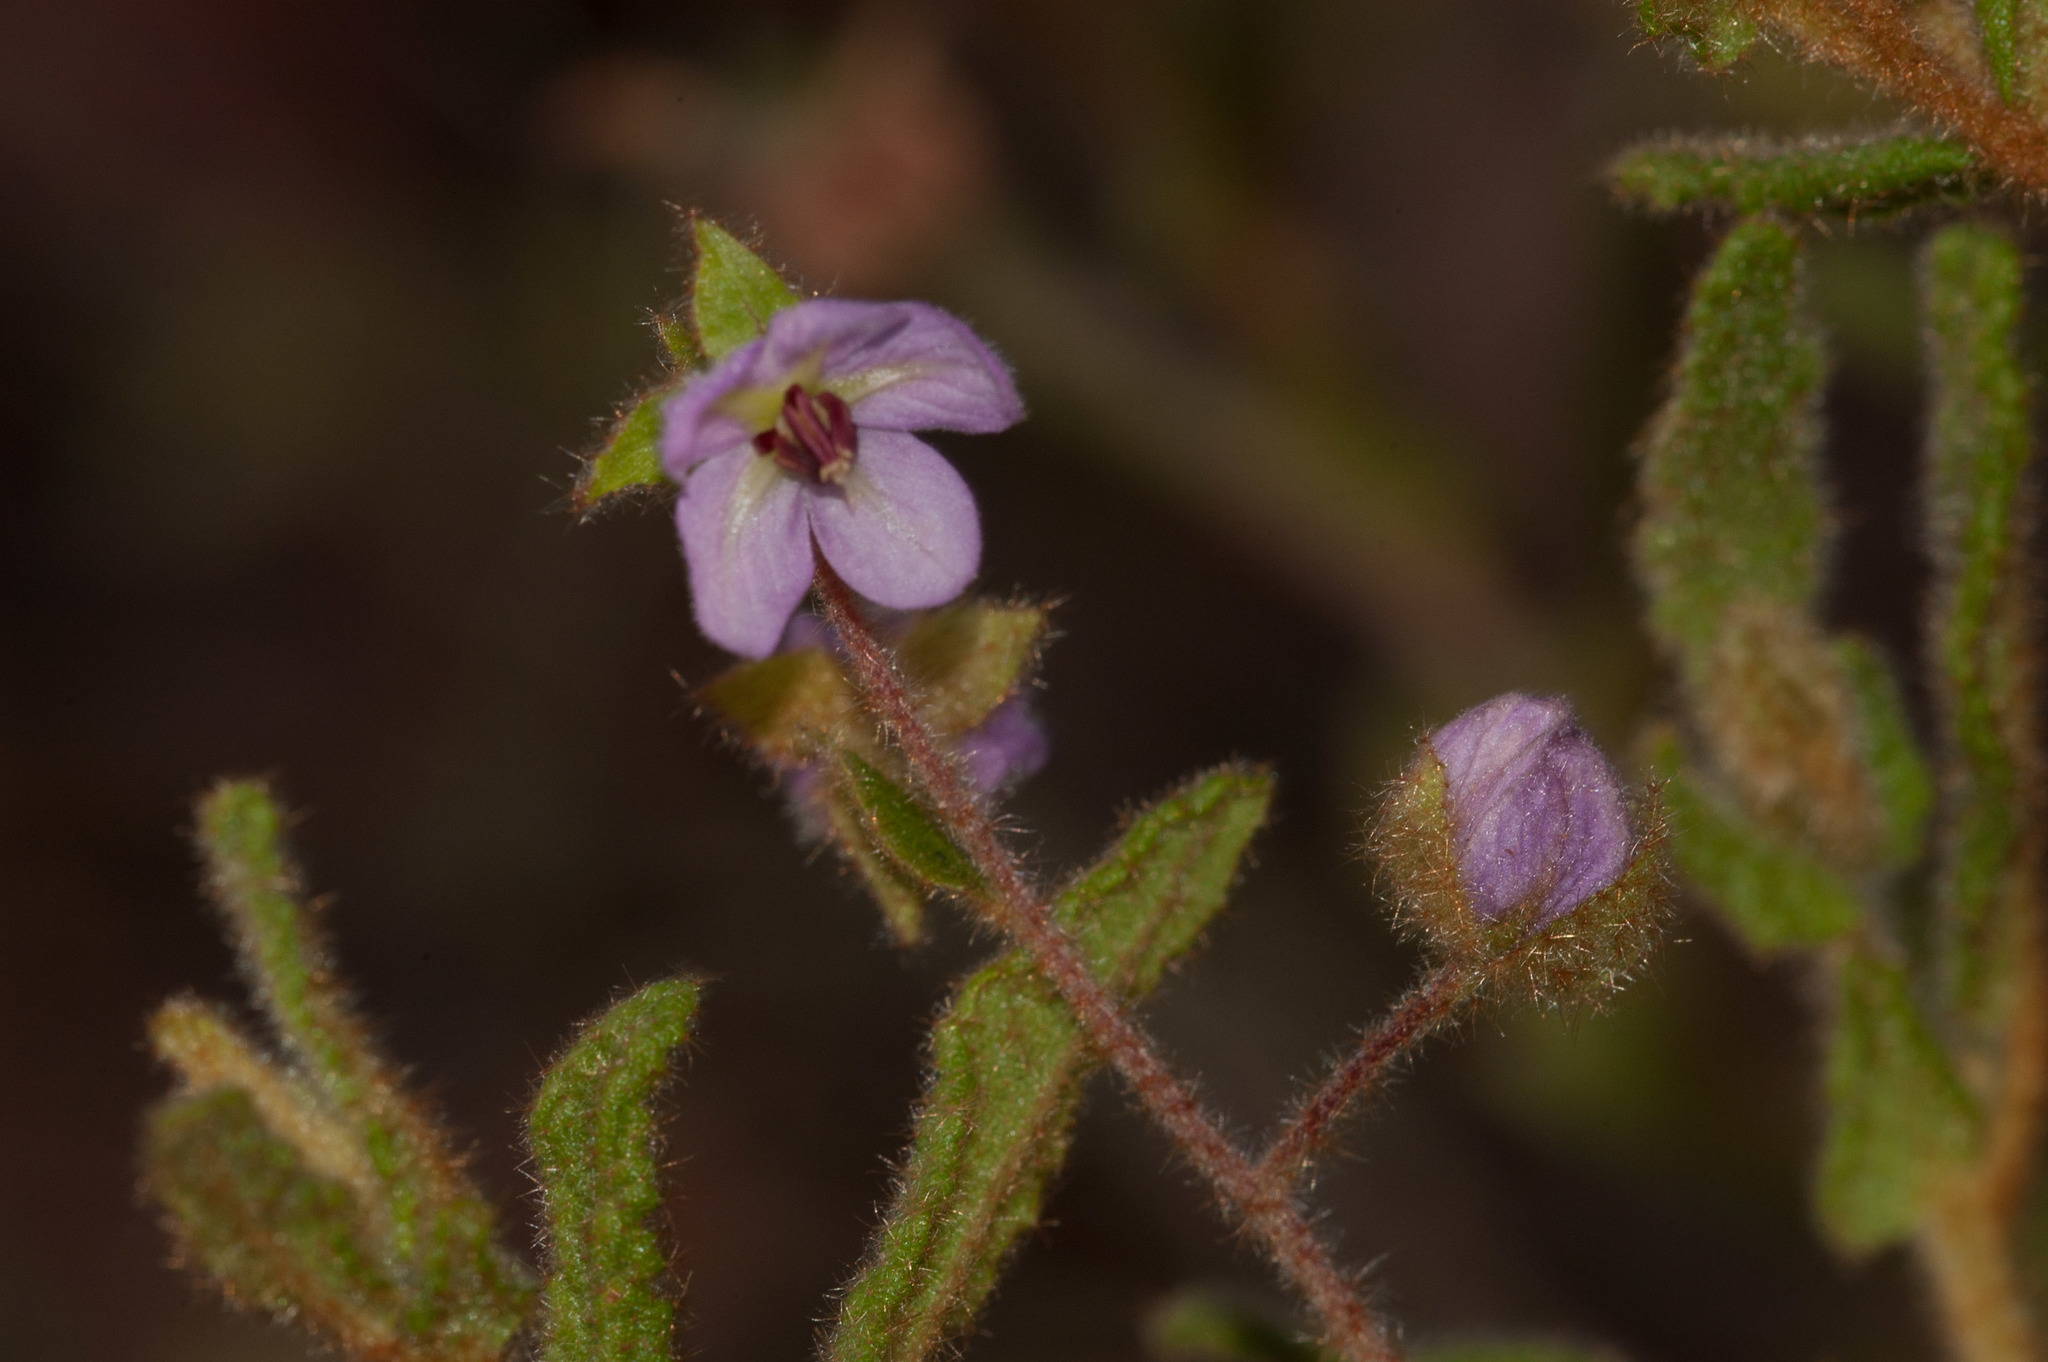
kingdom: Plantae
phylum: Tracheophyta
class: Magnoliopsida
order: Malvales
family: Malvaceae
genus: Thomasia
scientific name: Thomasia petalocalyx
